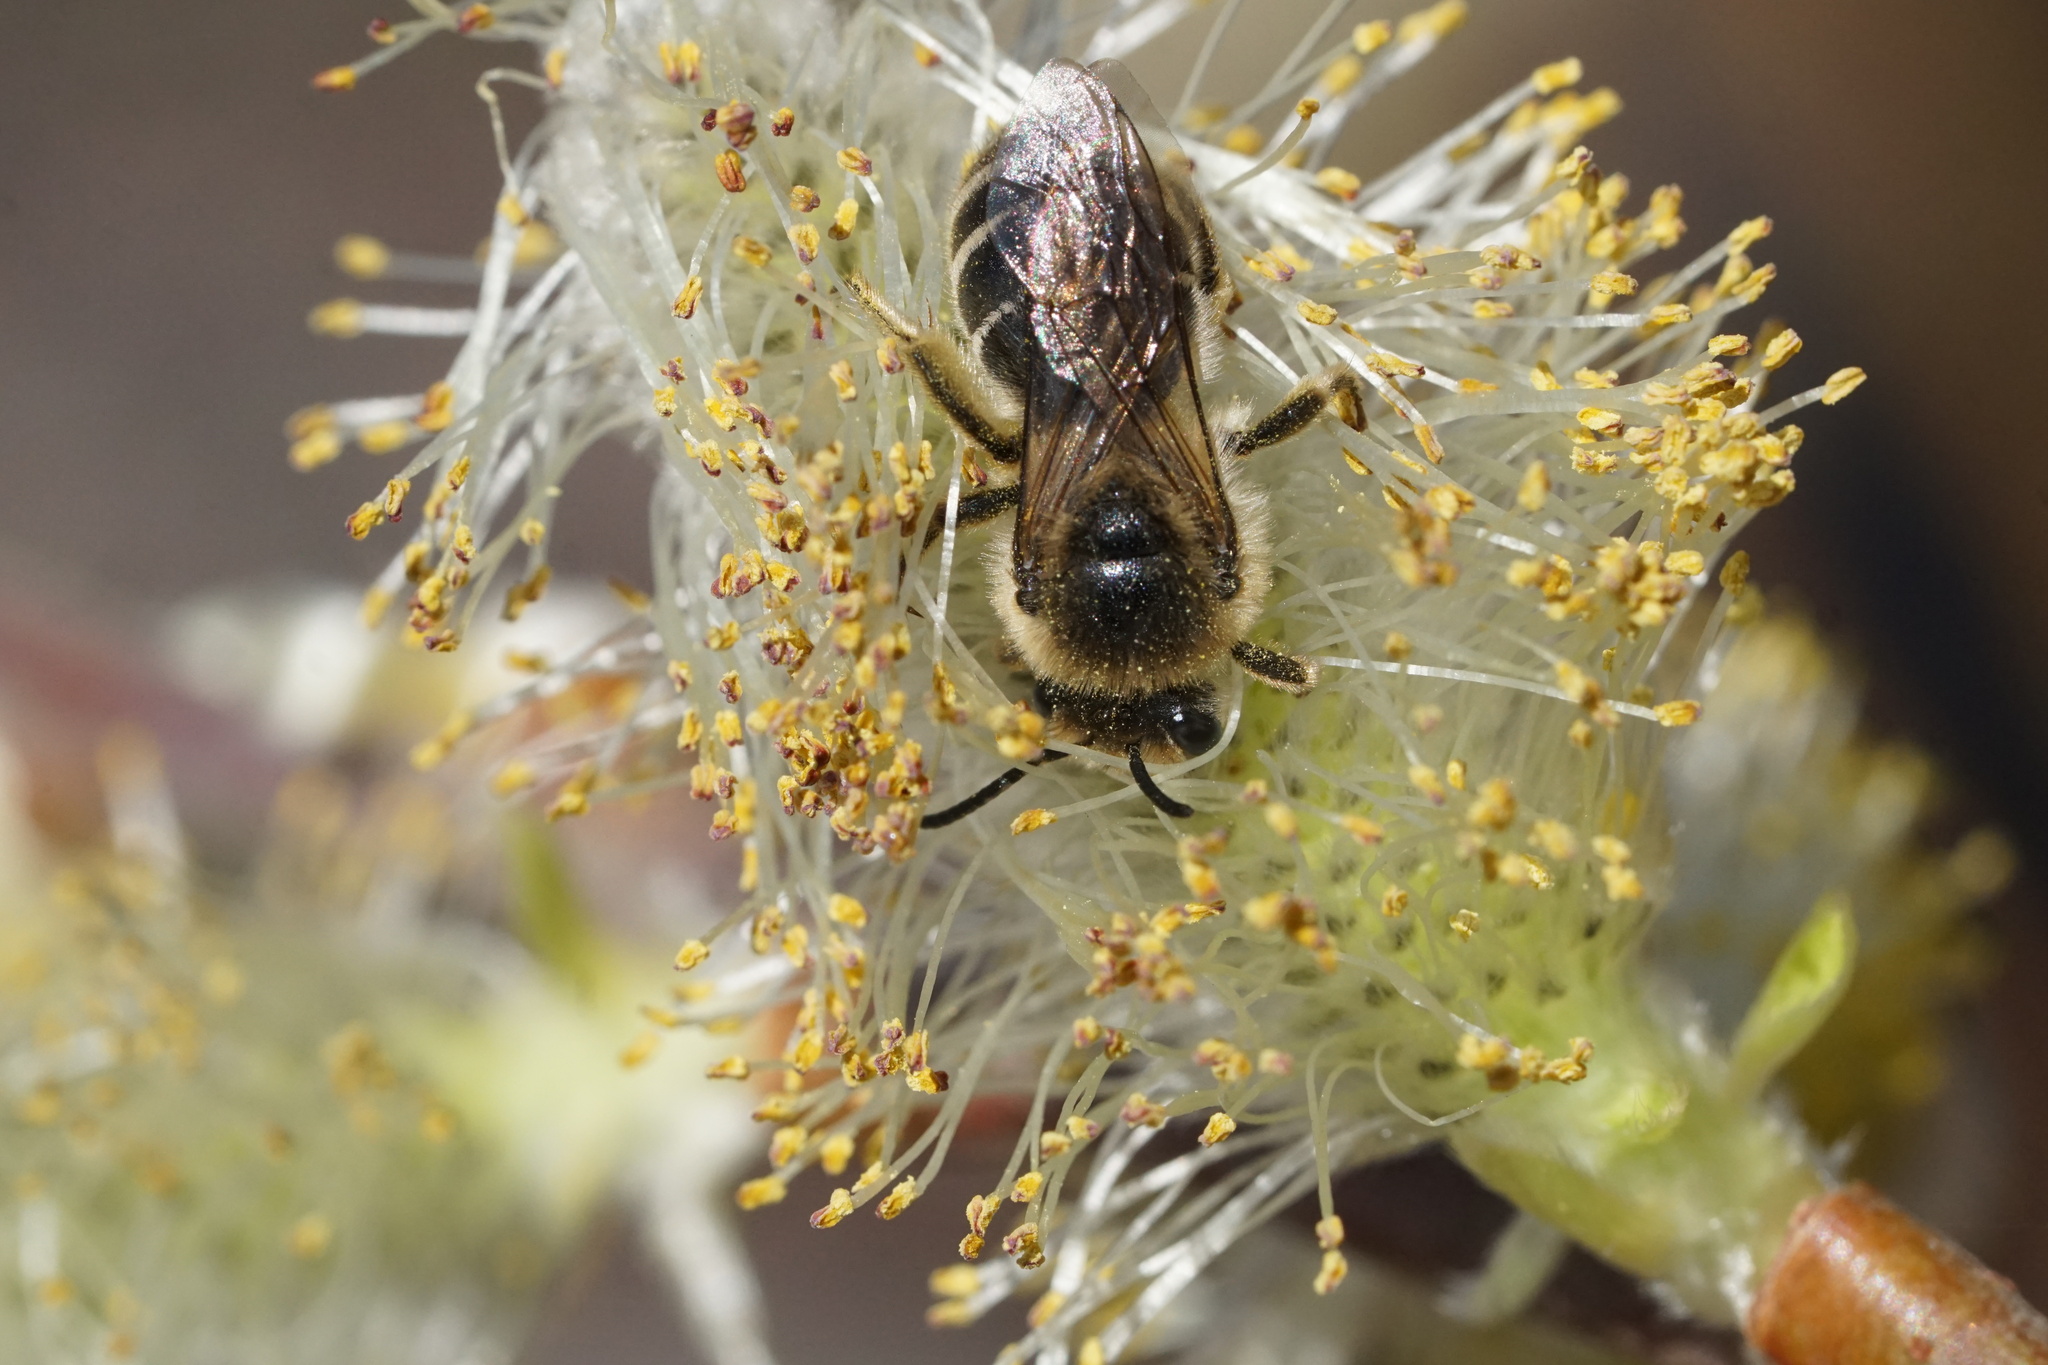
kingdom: Animalia
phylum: Arthropoda
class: Insecta
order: Hymenoptera
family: Colletidae
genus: Colletes
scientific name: Colletes inaequalis
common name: Unequal cellophane bee
